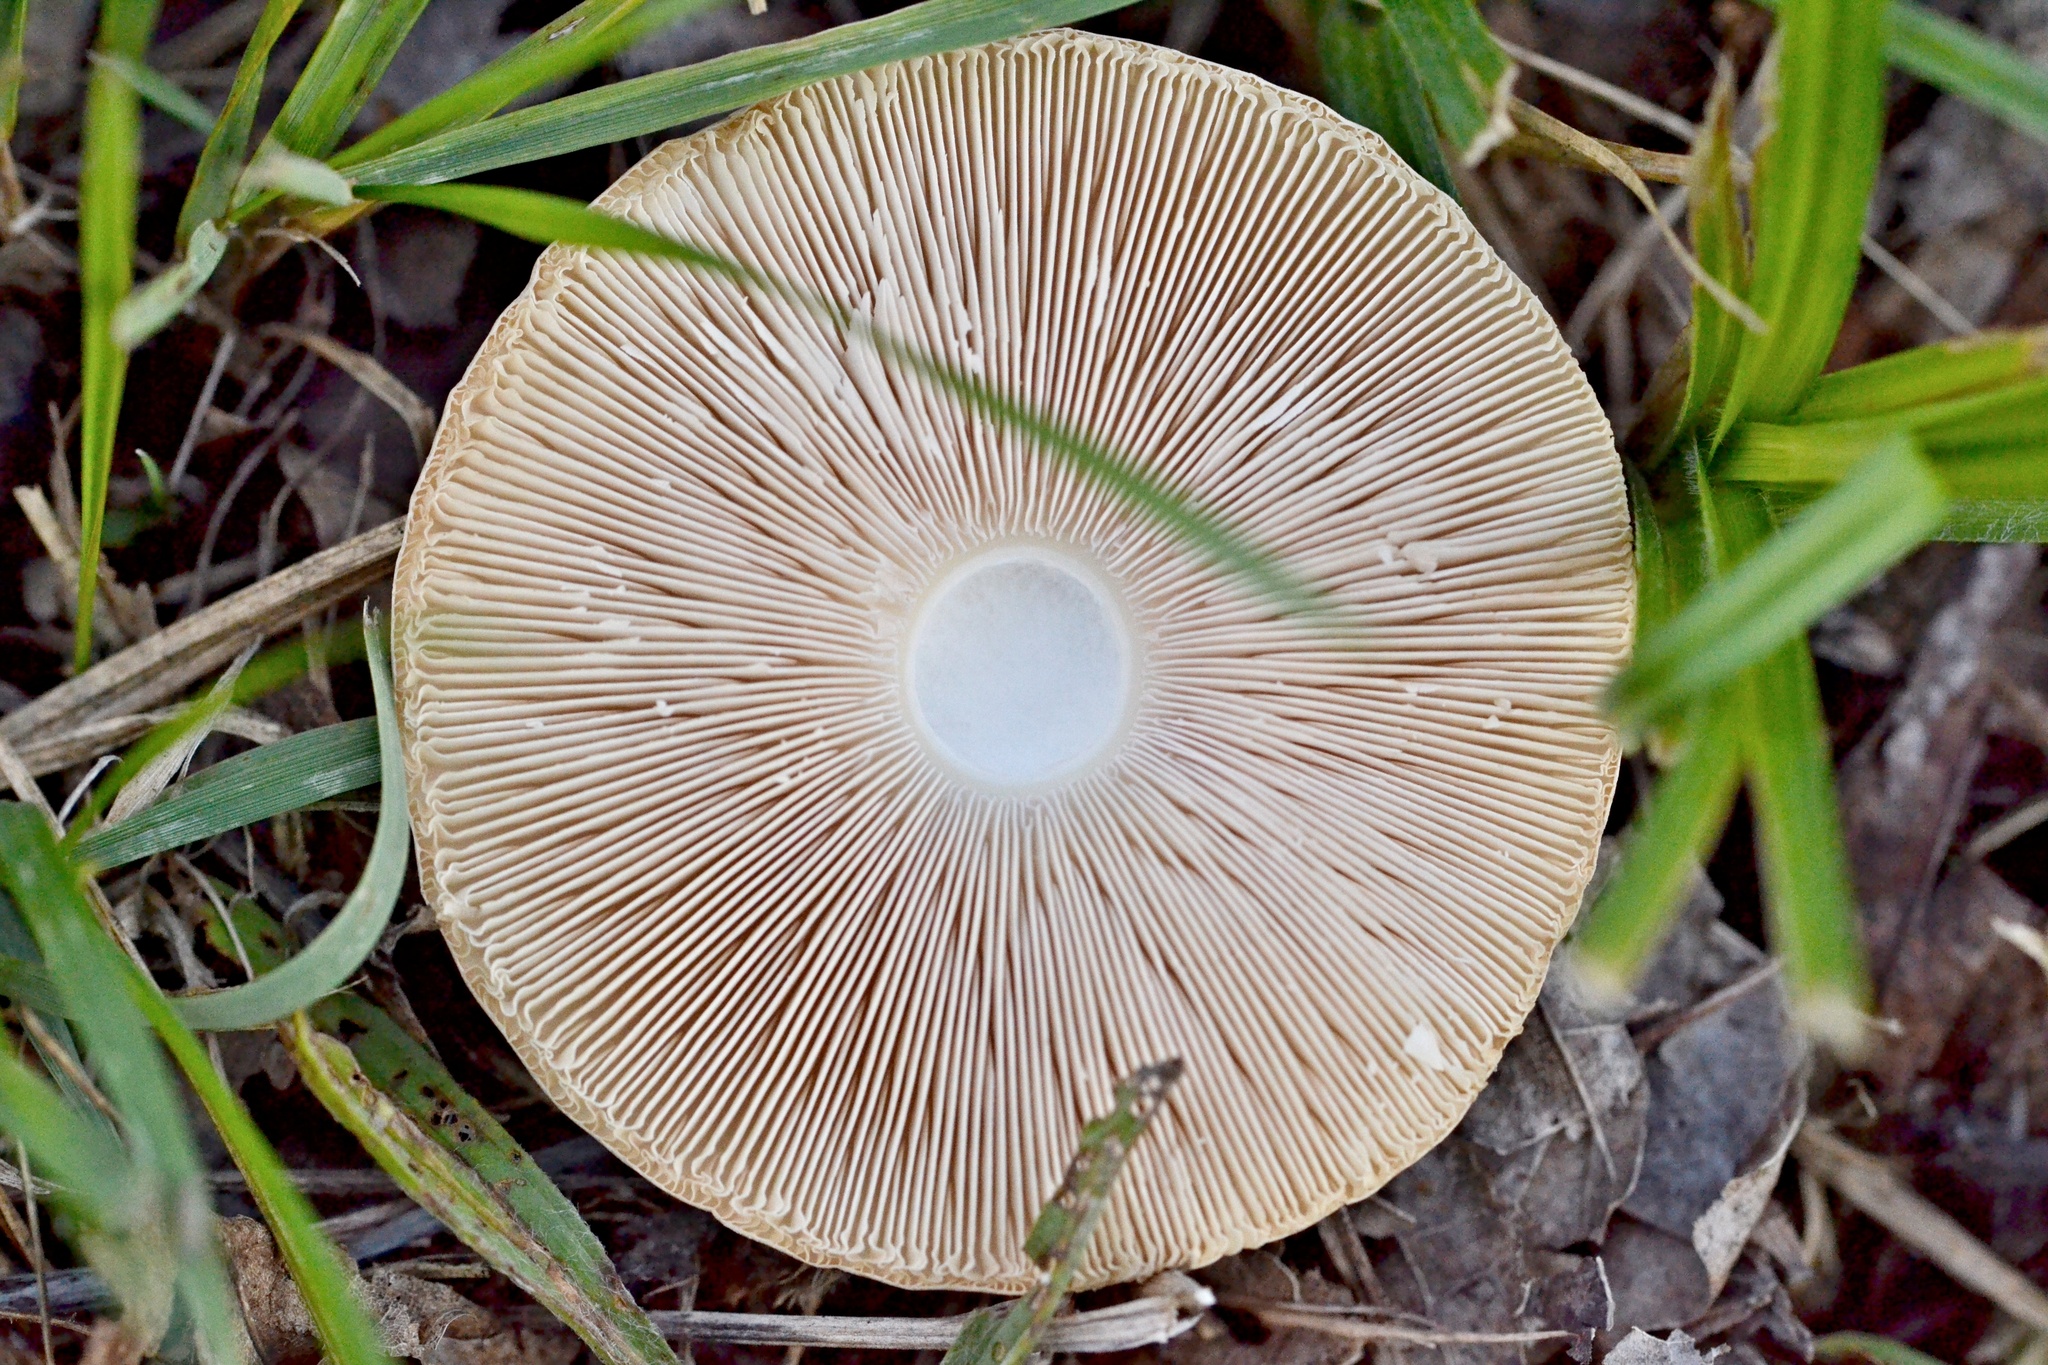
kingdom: Fungi
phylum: Basidiomycota
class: Agaricomycetes
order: Agaricales
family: Agaricaceae
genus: Leucoagaricus
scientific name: Leucoagaricus leucothites
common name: White dapperling
